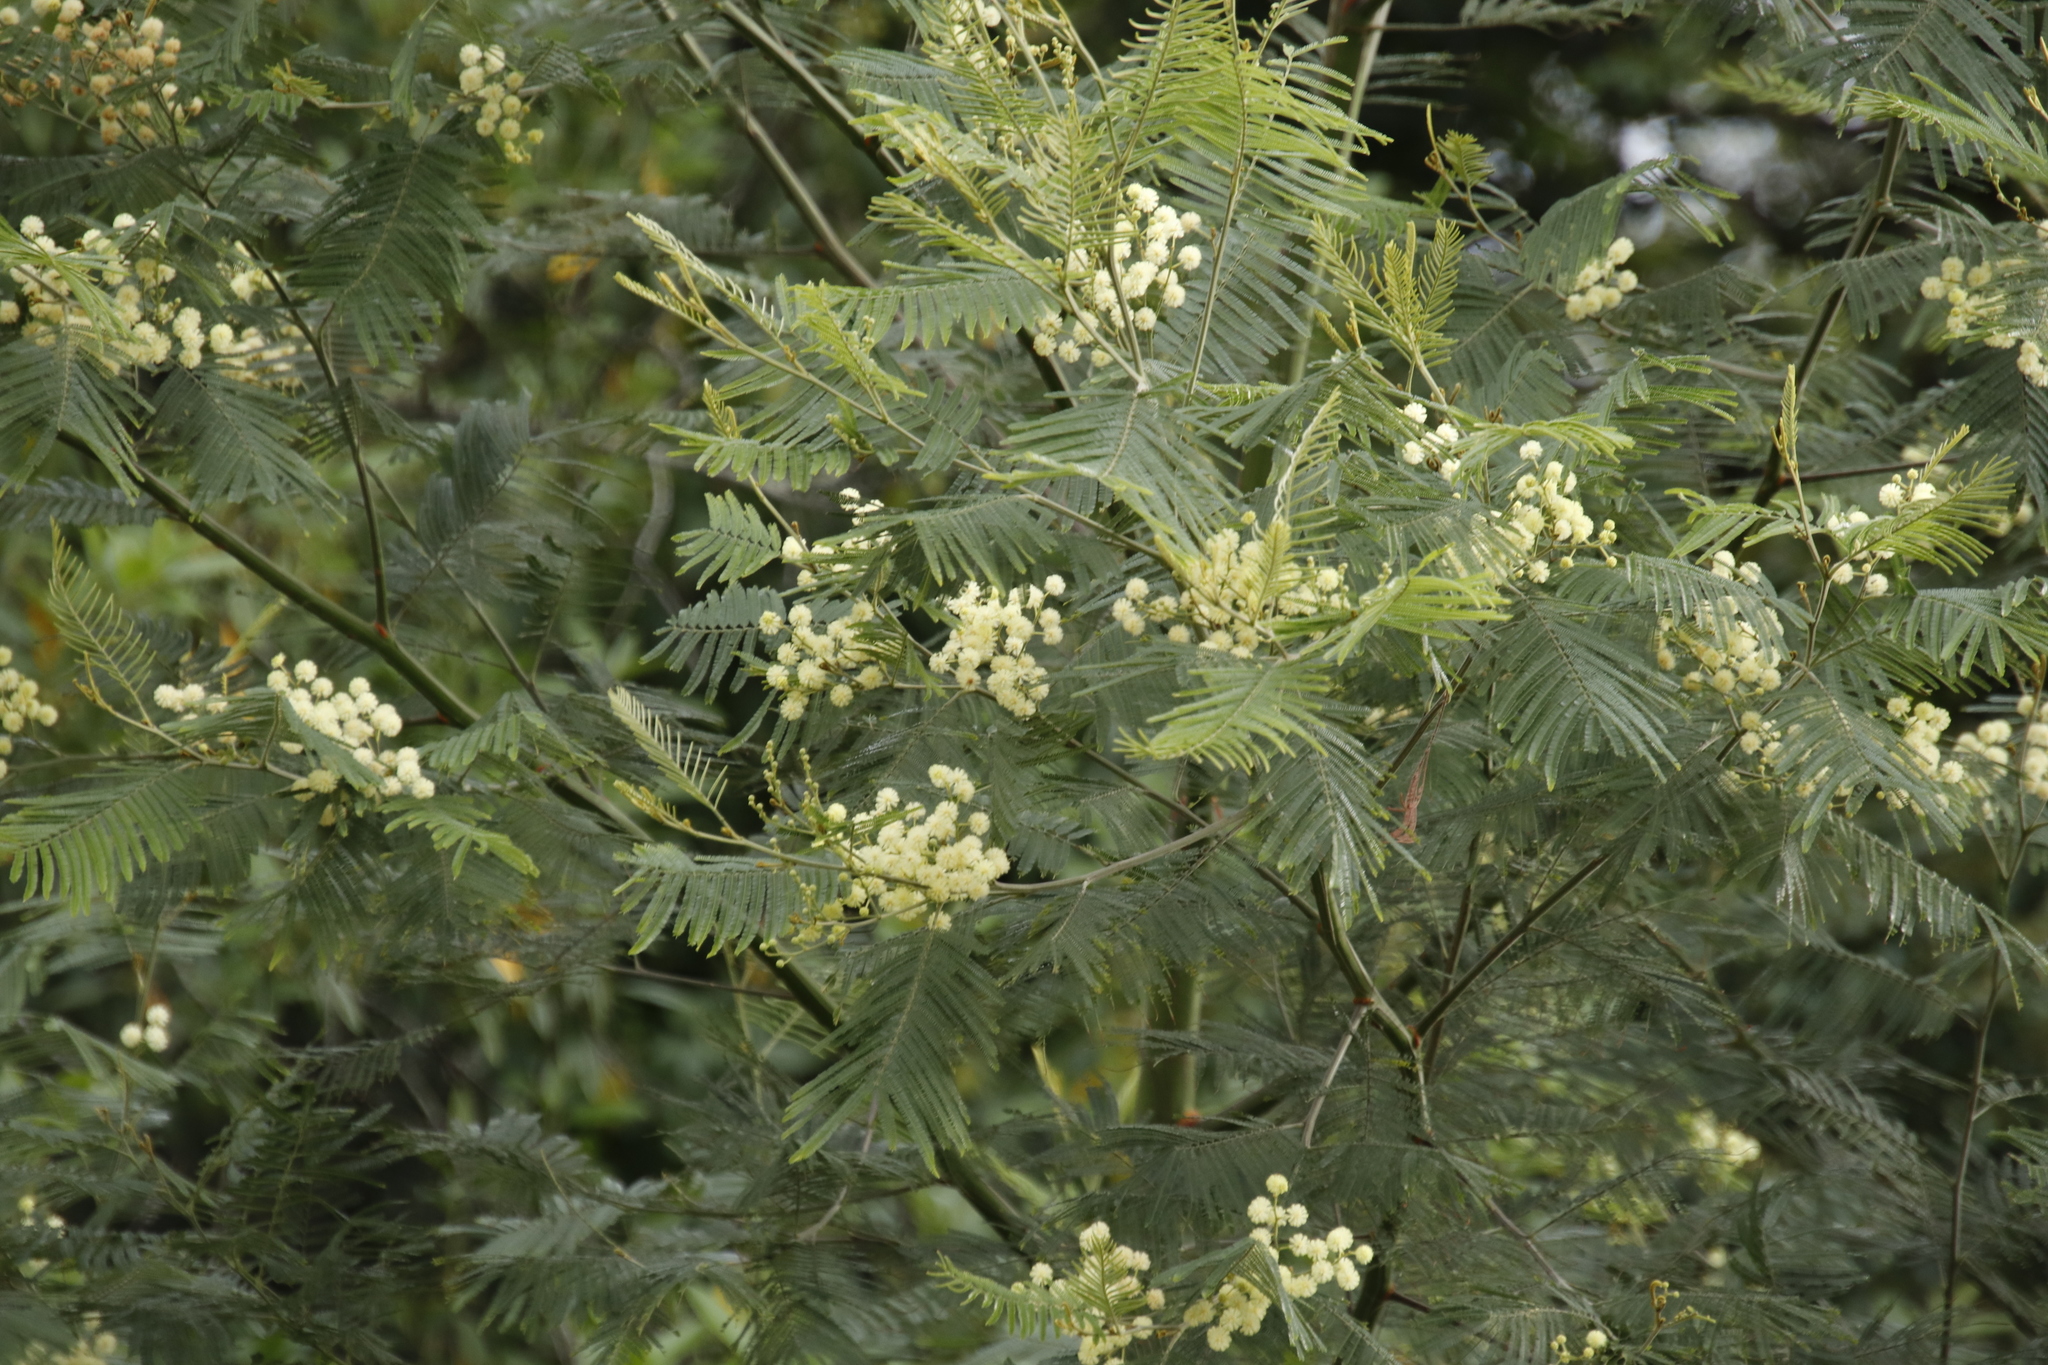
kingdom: Plantae
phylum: Tracheophyta
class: Magnoliopsida
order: Fabales
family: Fabaceae
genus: Acacia
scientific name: Acacia mearnsii
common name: Black wattle
